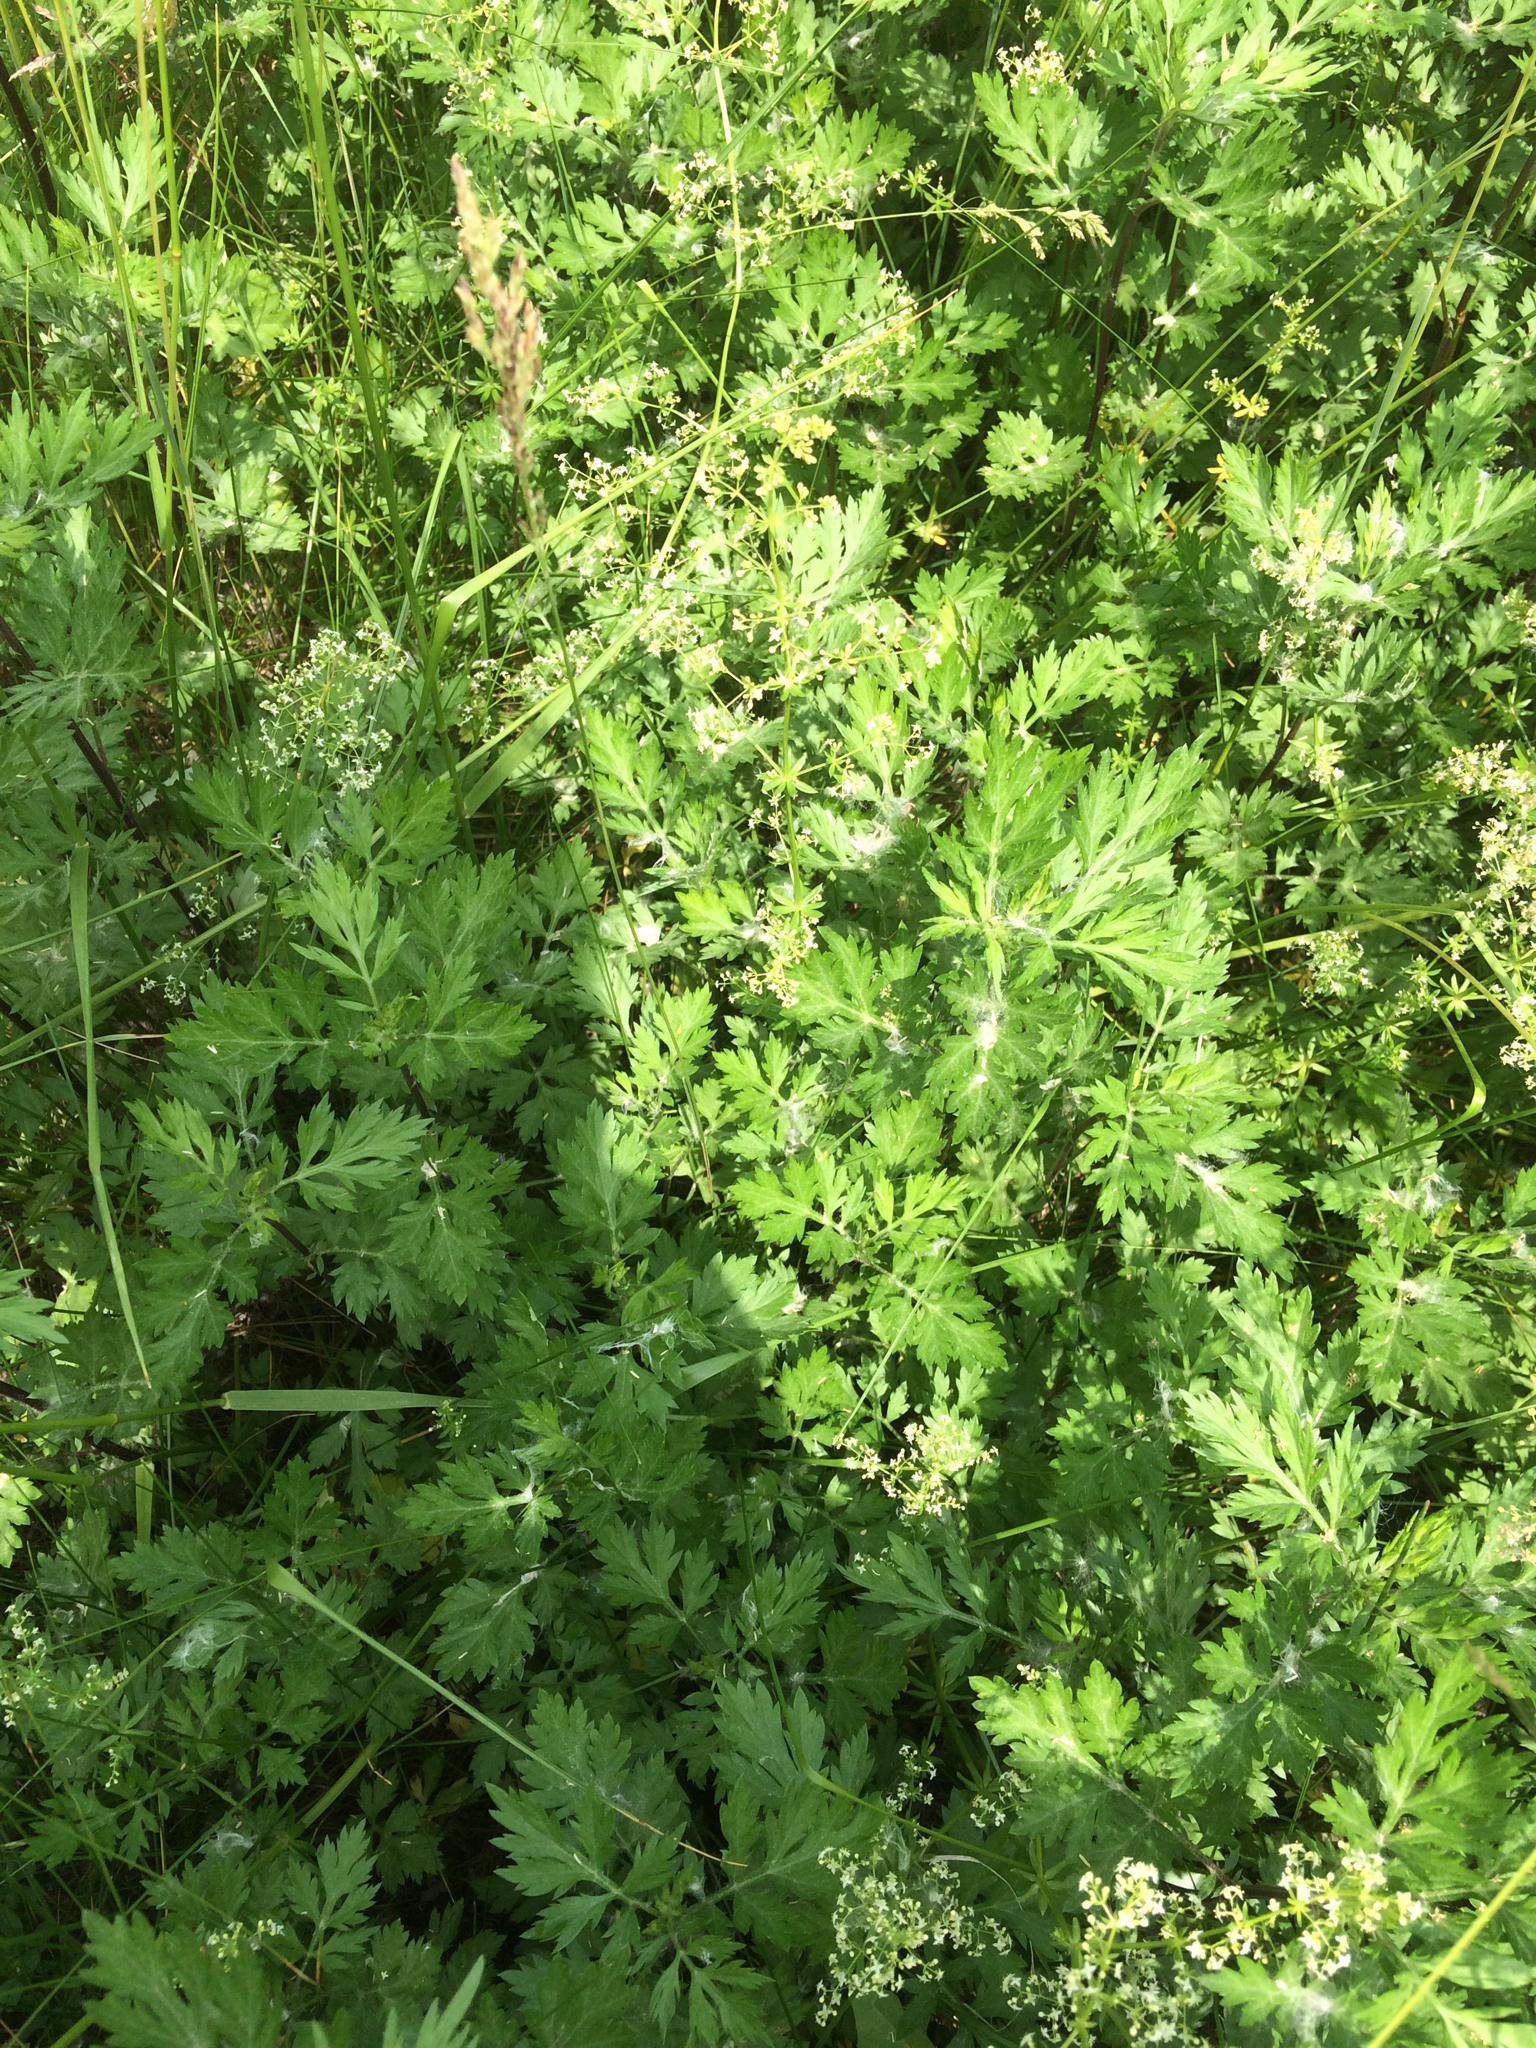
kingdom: Plantae
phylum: Tracheophyta
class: Magnoliopsida
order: Asterales
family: Asteraceae
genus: Artemisia
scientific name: Artemisia vulgaris
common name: Mugwort
